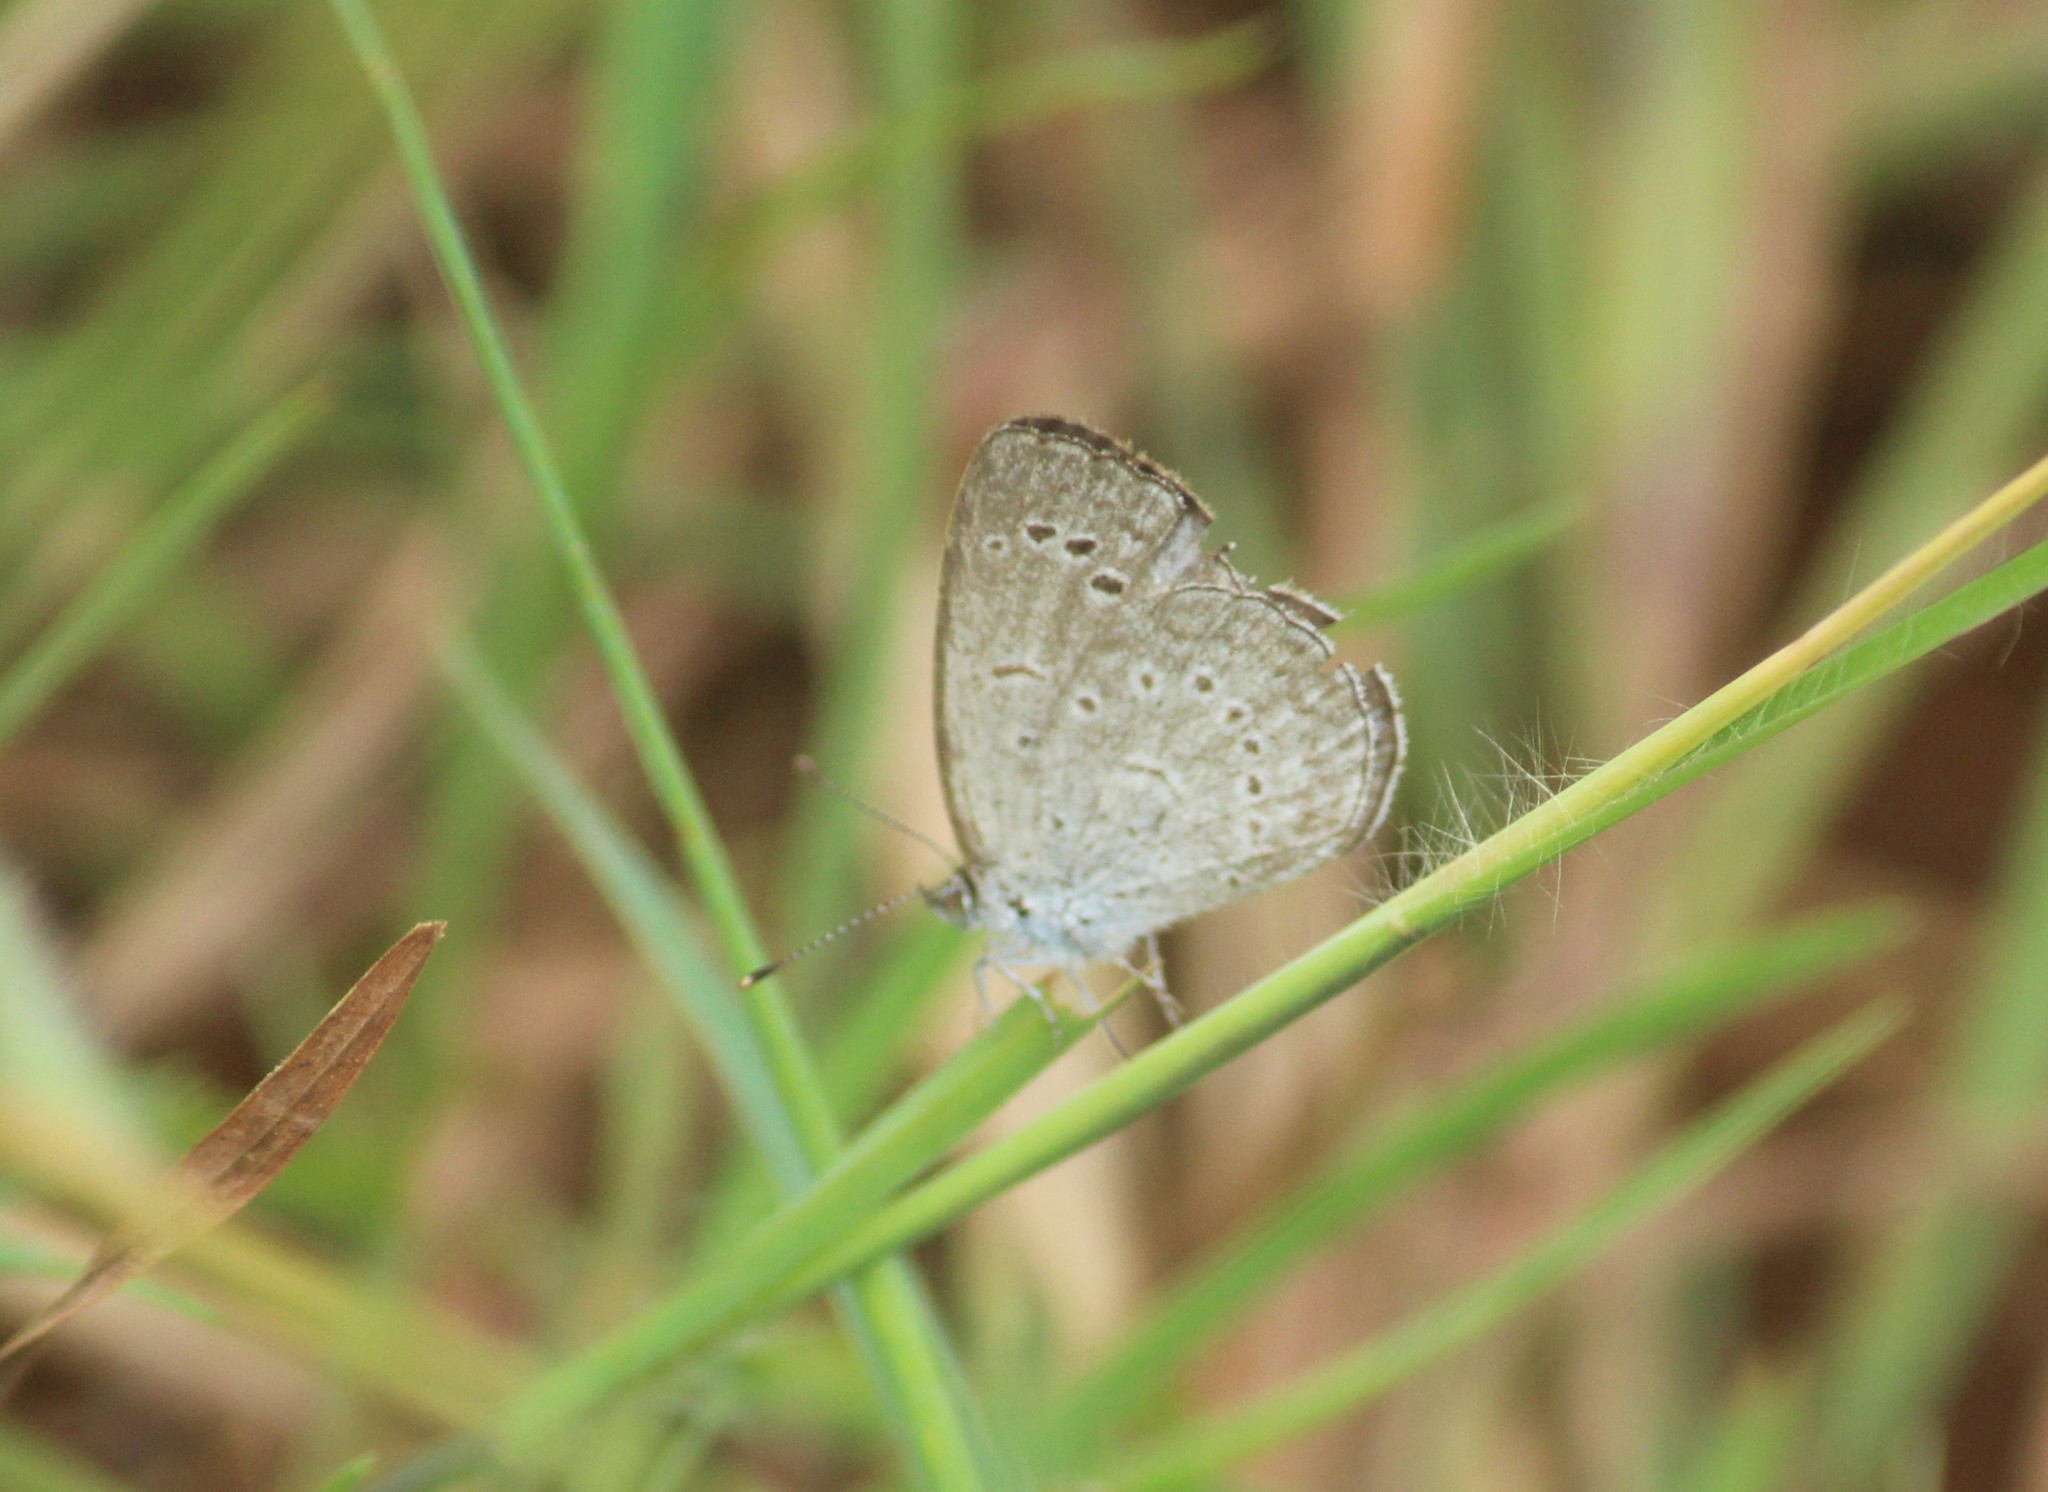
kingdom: Animalia
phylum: Arthropoda
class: Insecta
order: Lepidoptera
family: Lycaenidae
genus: Pseudozizeeria
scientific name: Pseudozizeeria maha
